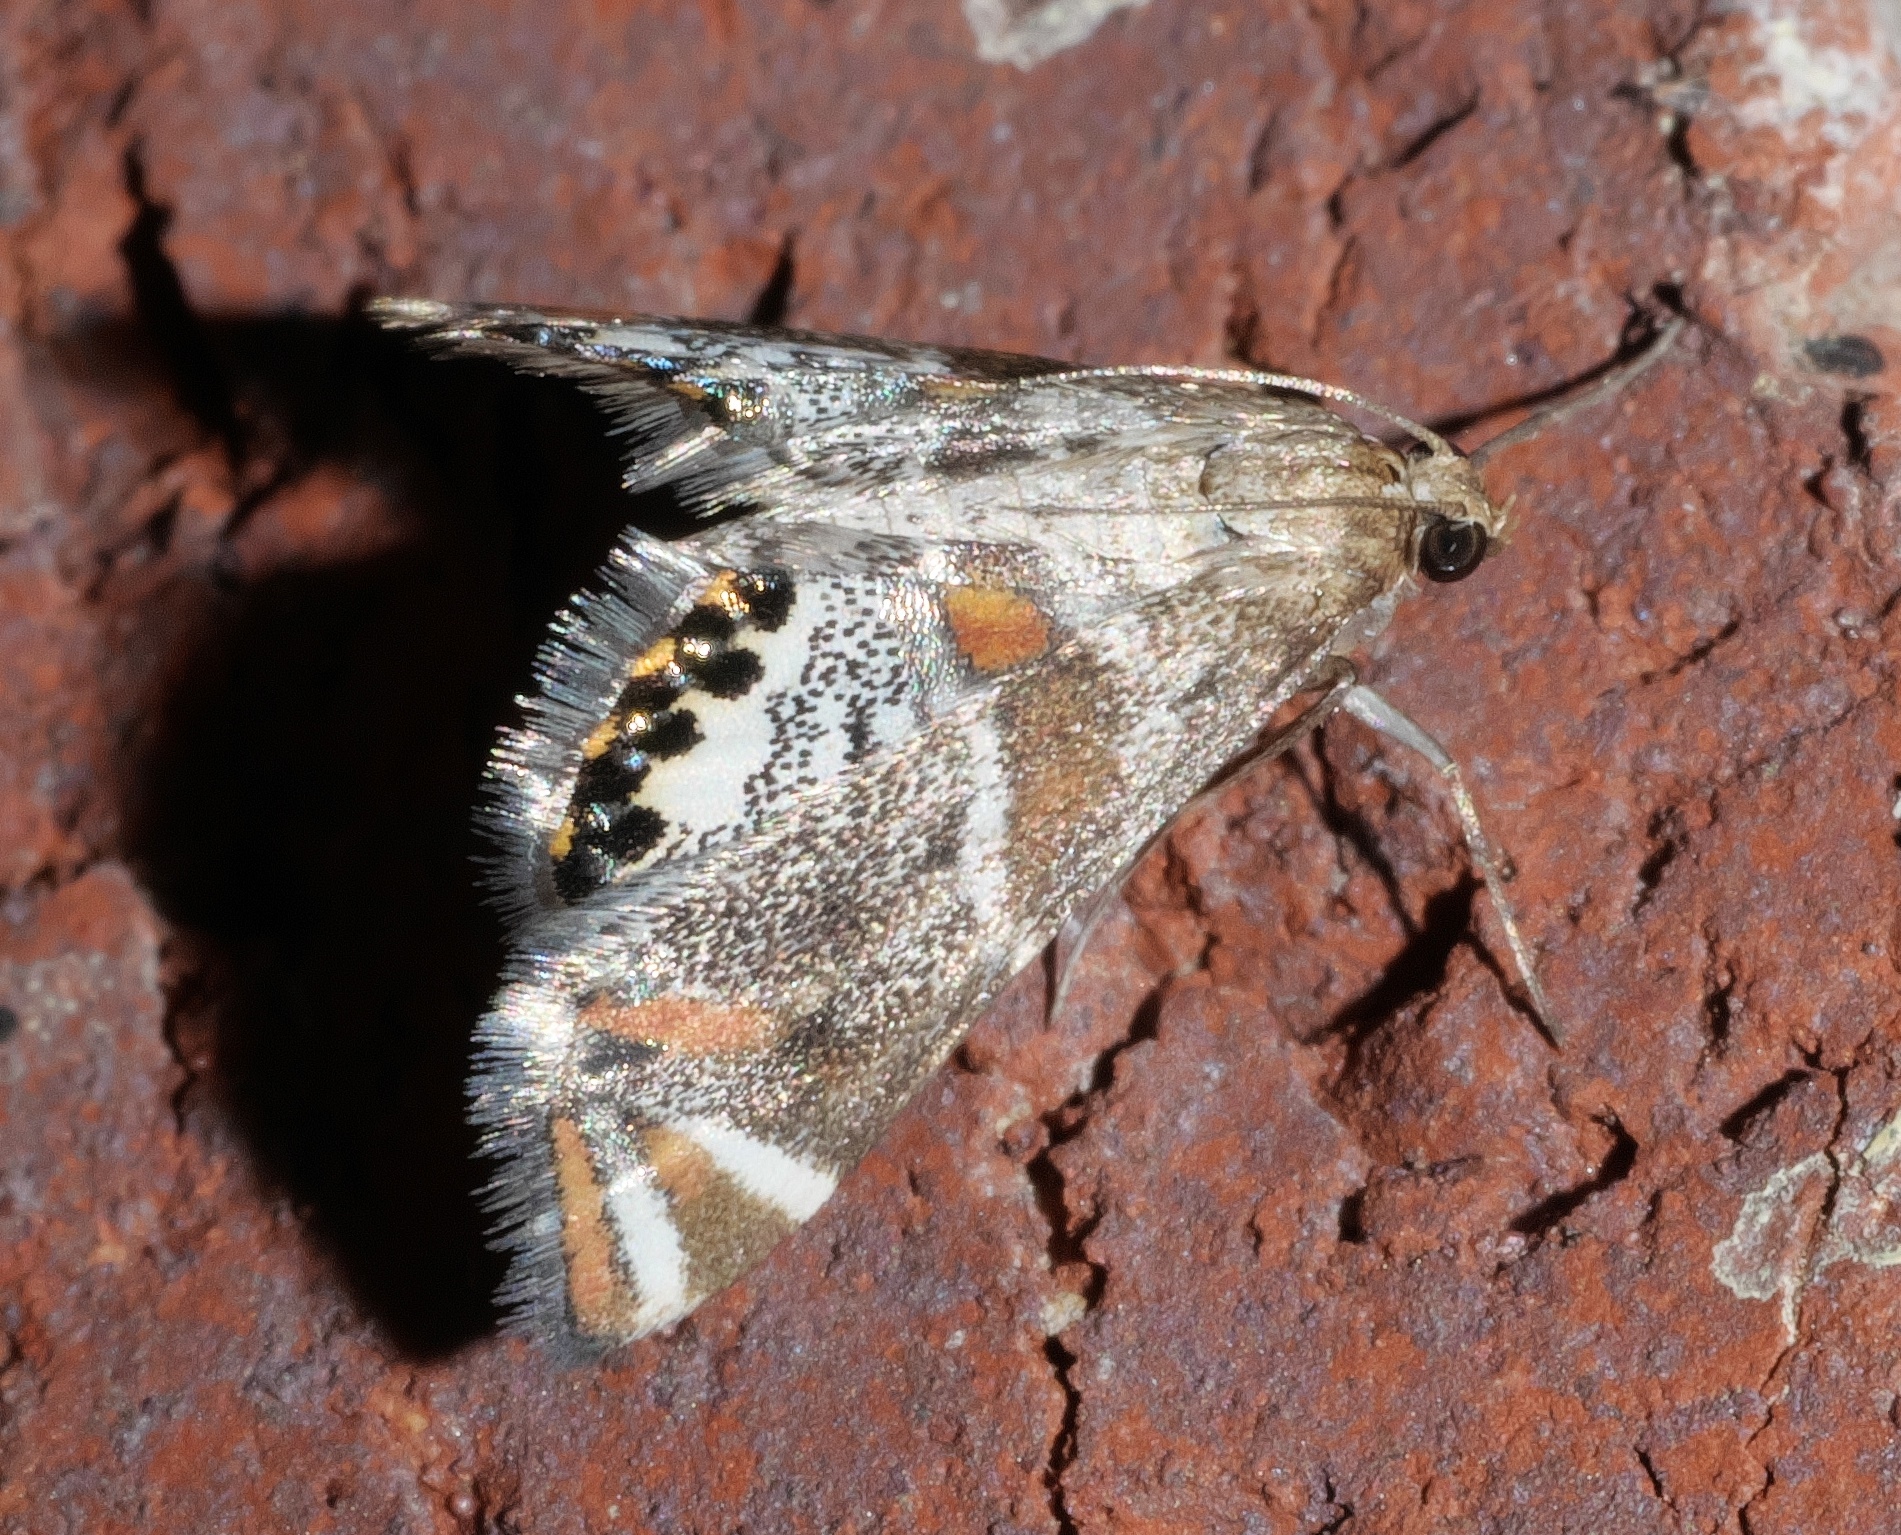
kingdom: Animalia
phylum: Arthropoda
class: Insecta
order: Lepidoptera
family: Crambidae
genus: Petrophila
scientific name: Petrophila jaliscalis
